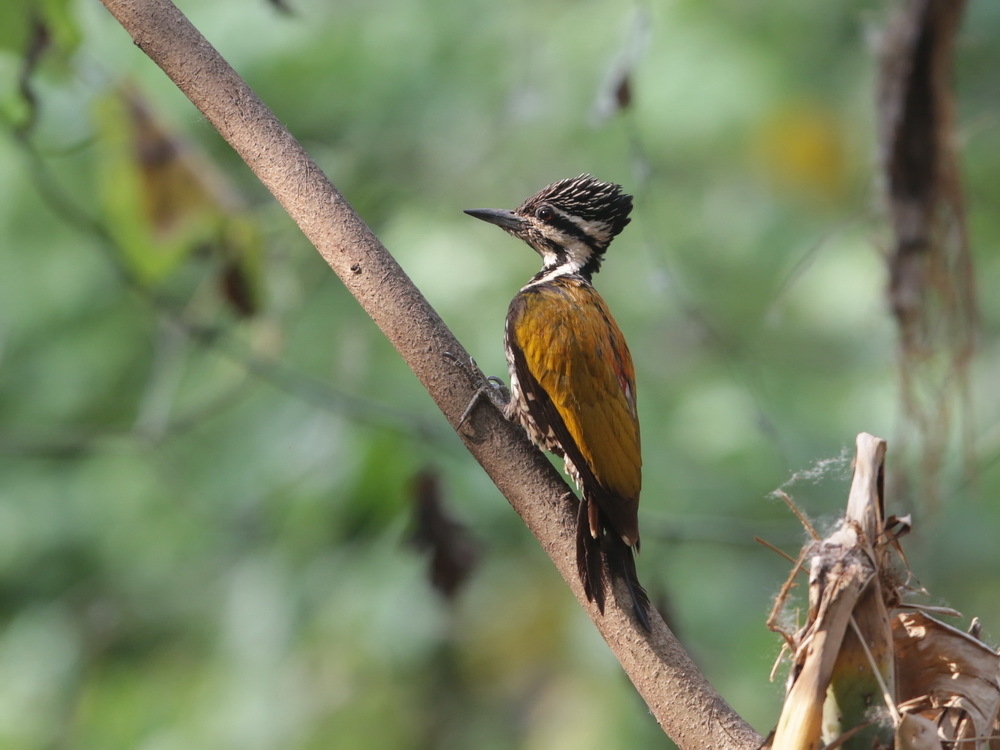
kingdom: Animalia
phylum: Chordata
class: Aves
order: Piciformes
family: Picidae
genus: Dinopium
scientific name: Dinopium javanense
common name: Common flameback
